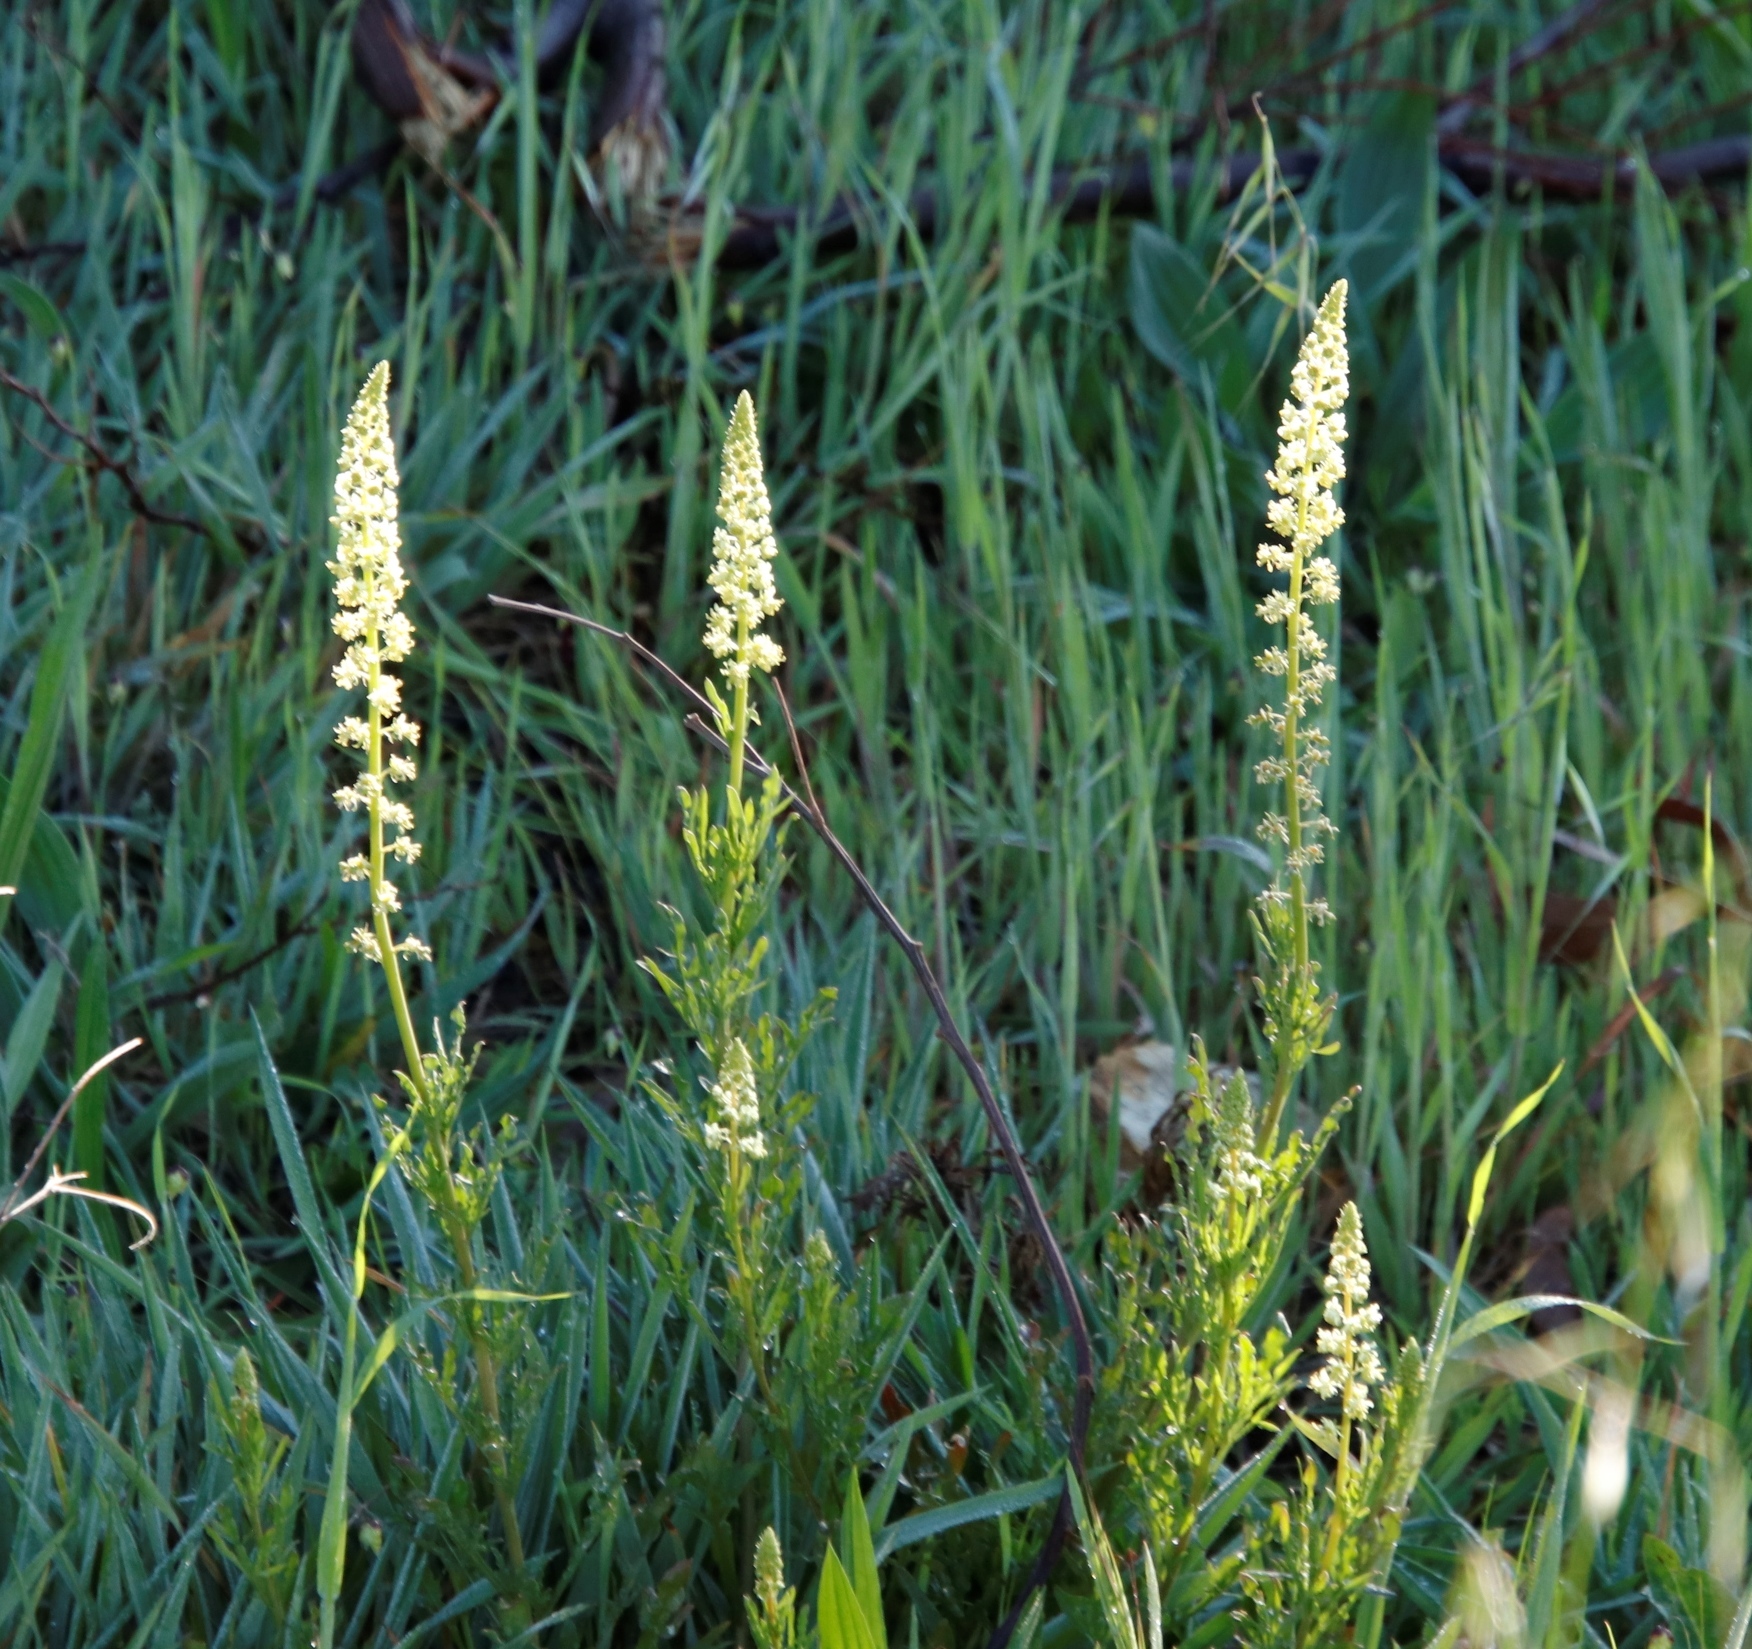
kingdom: Plantae
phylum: Tracheophyta
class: Magnoliopsida
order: Brassicales
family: Resedaceae
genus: Reseda
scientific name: Reseda lutea
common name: Wild mignonette
